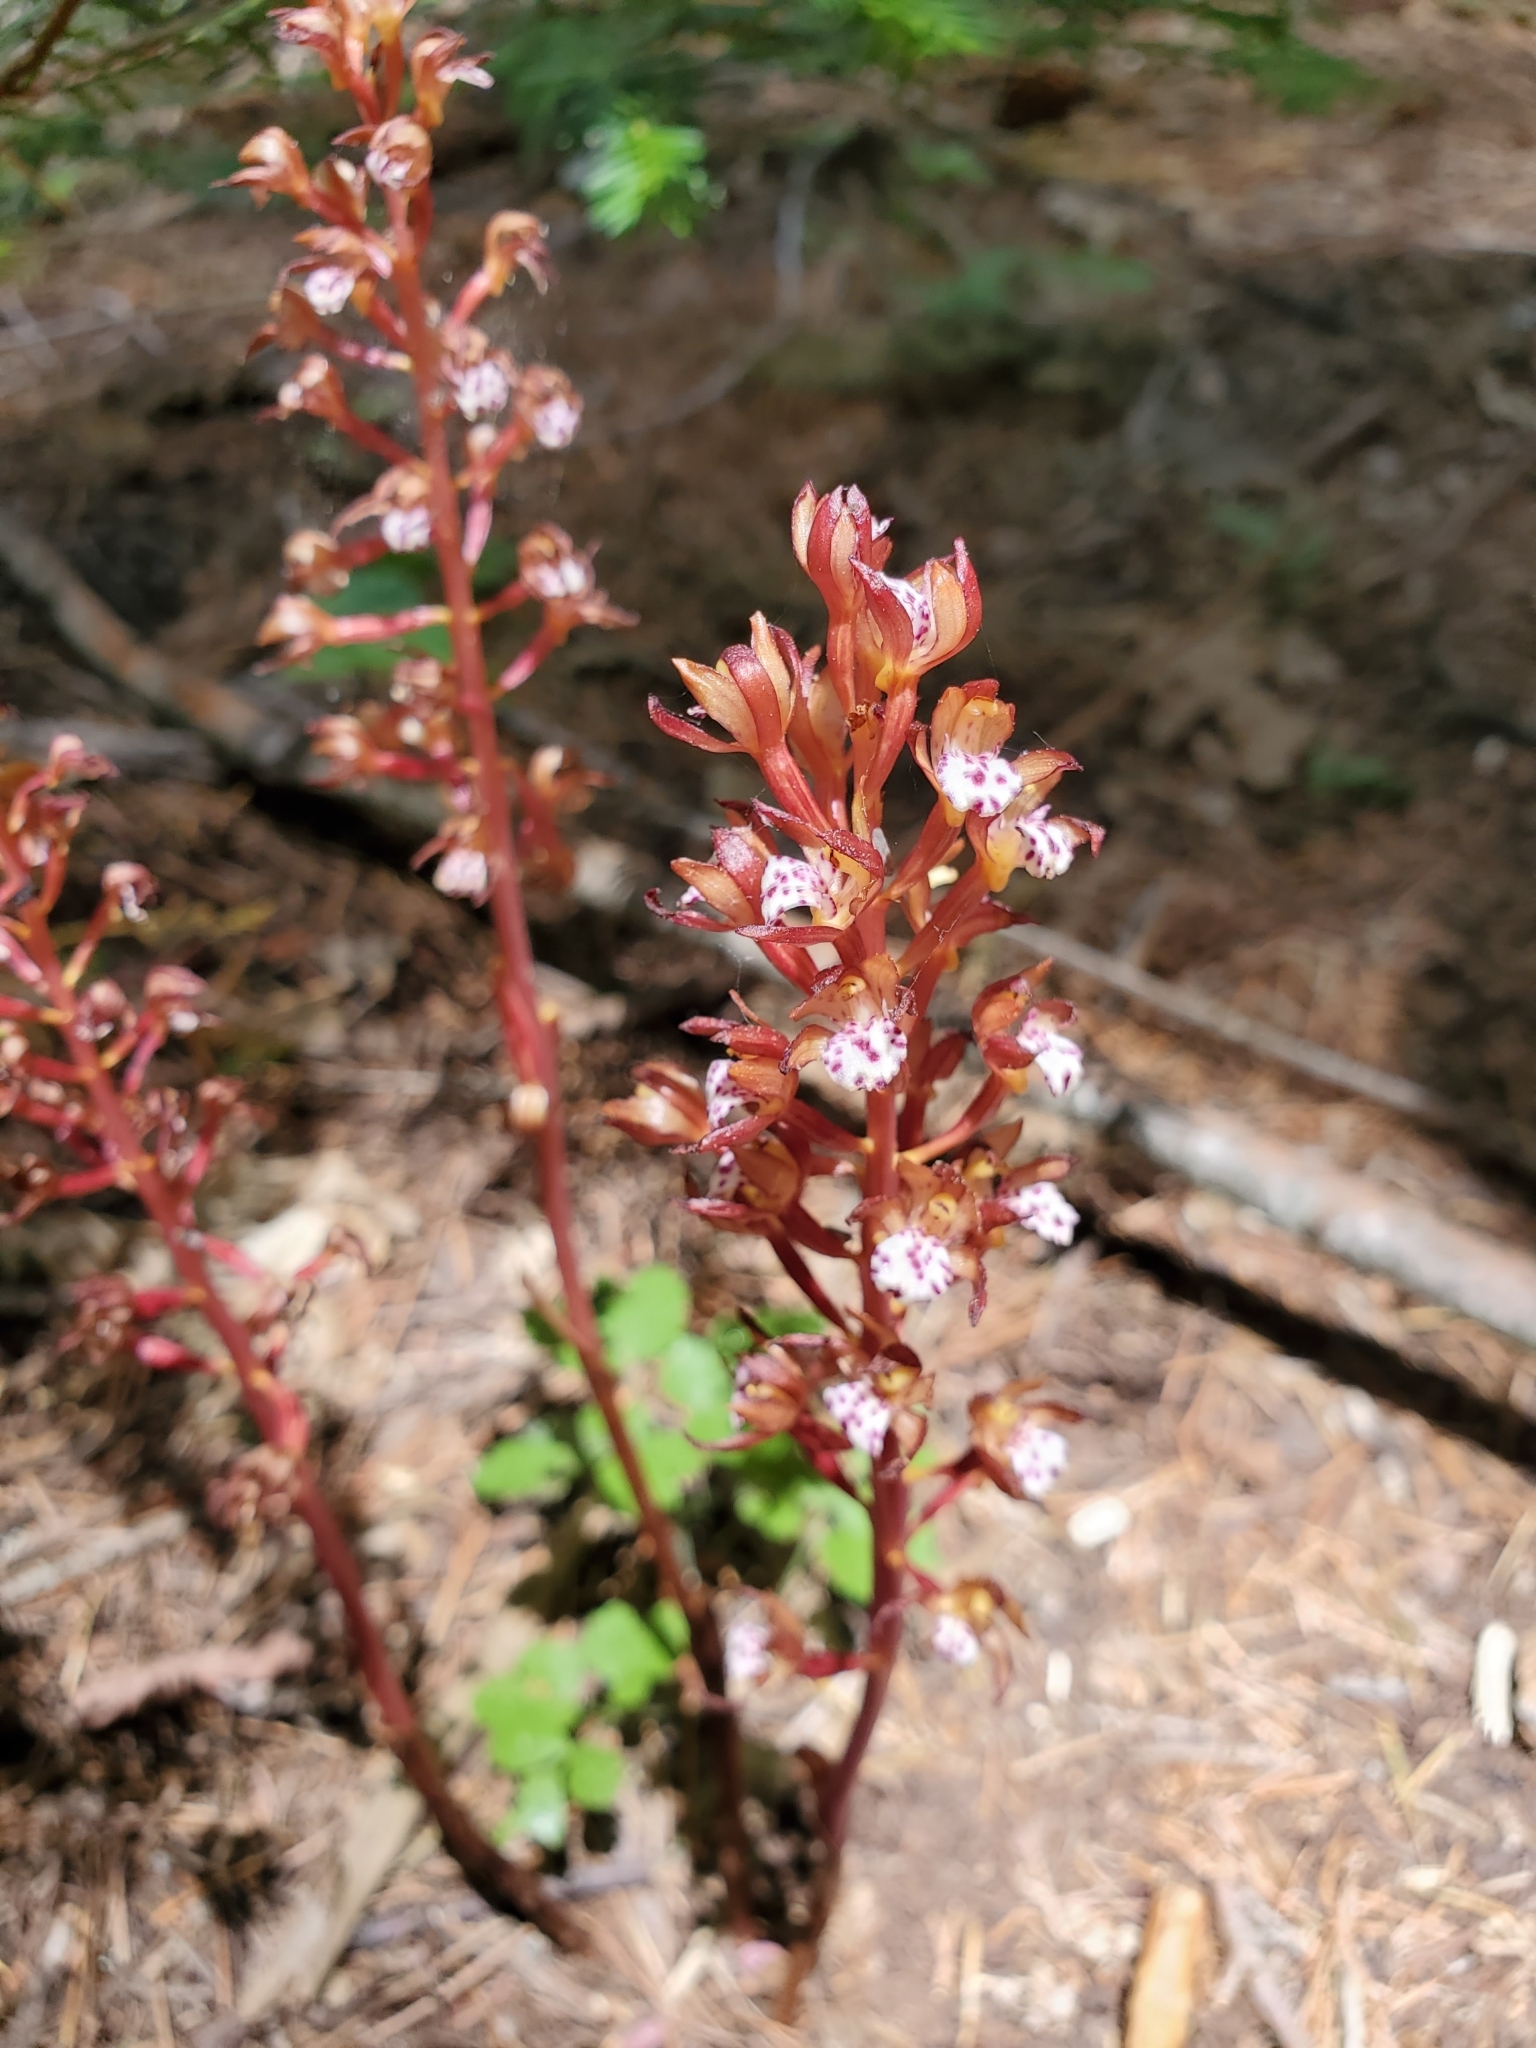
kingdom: Plantae
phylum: Tracheophyta
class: Liliopsida
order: Asparagales
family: Orchidaceae
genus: Corallorhiza
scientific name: Corallorhiza maculata
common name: Spotted coralroot
